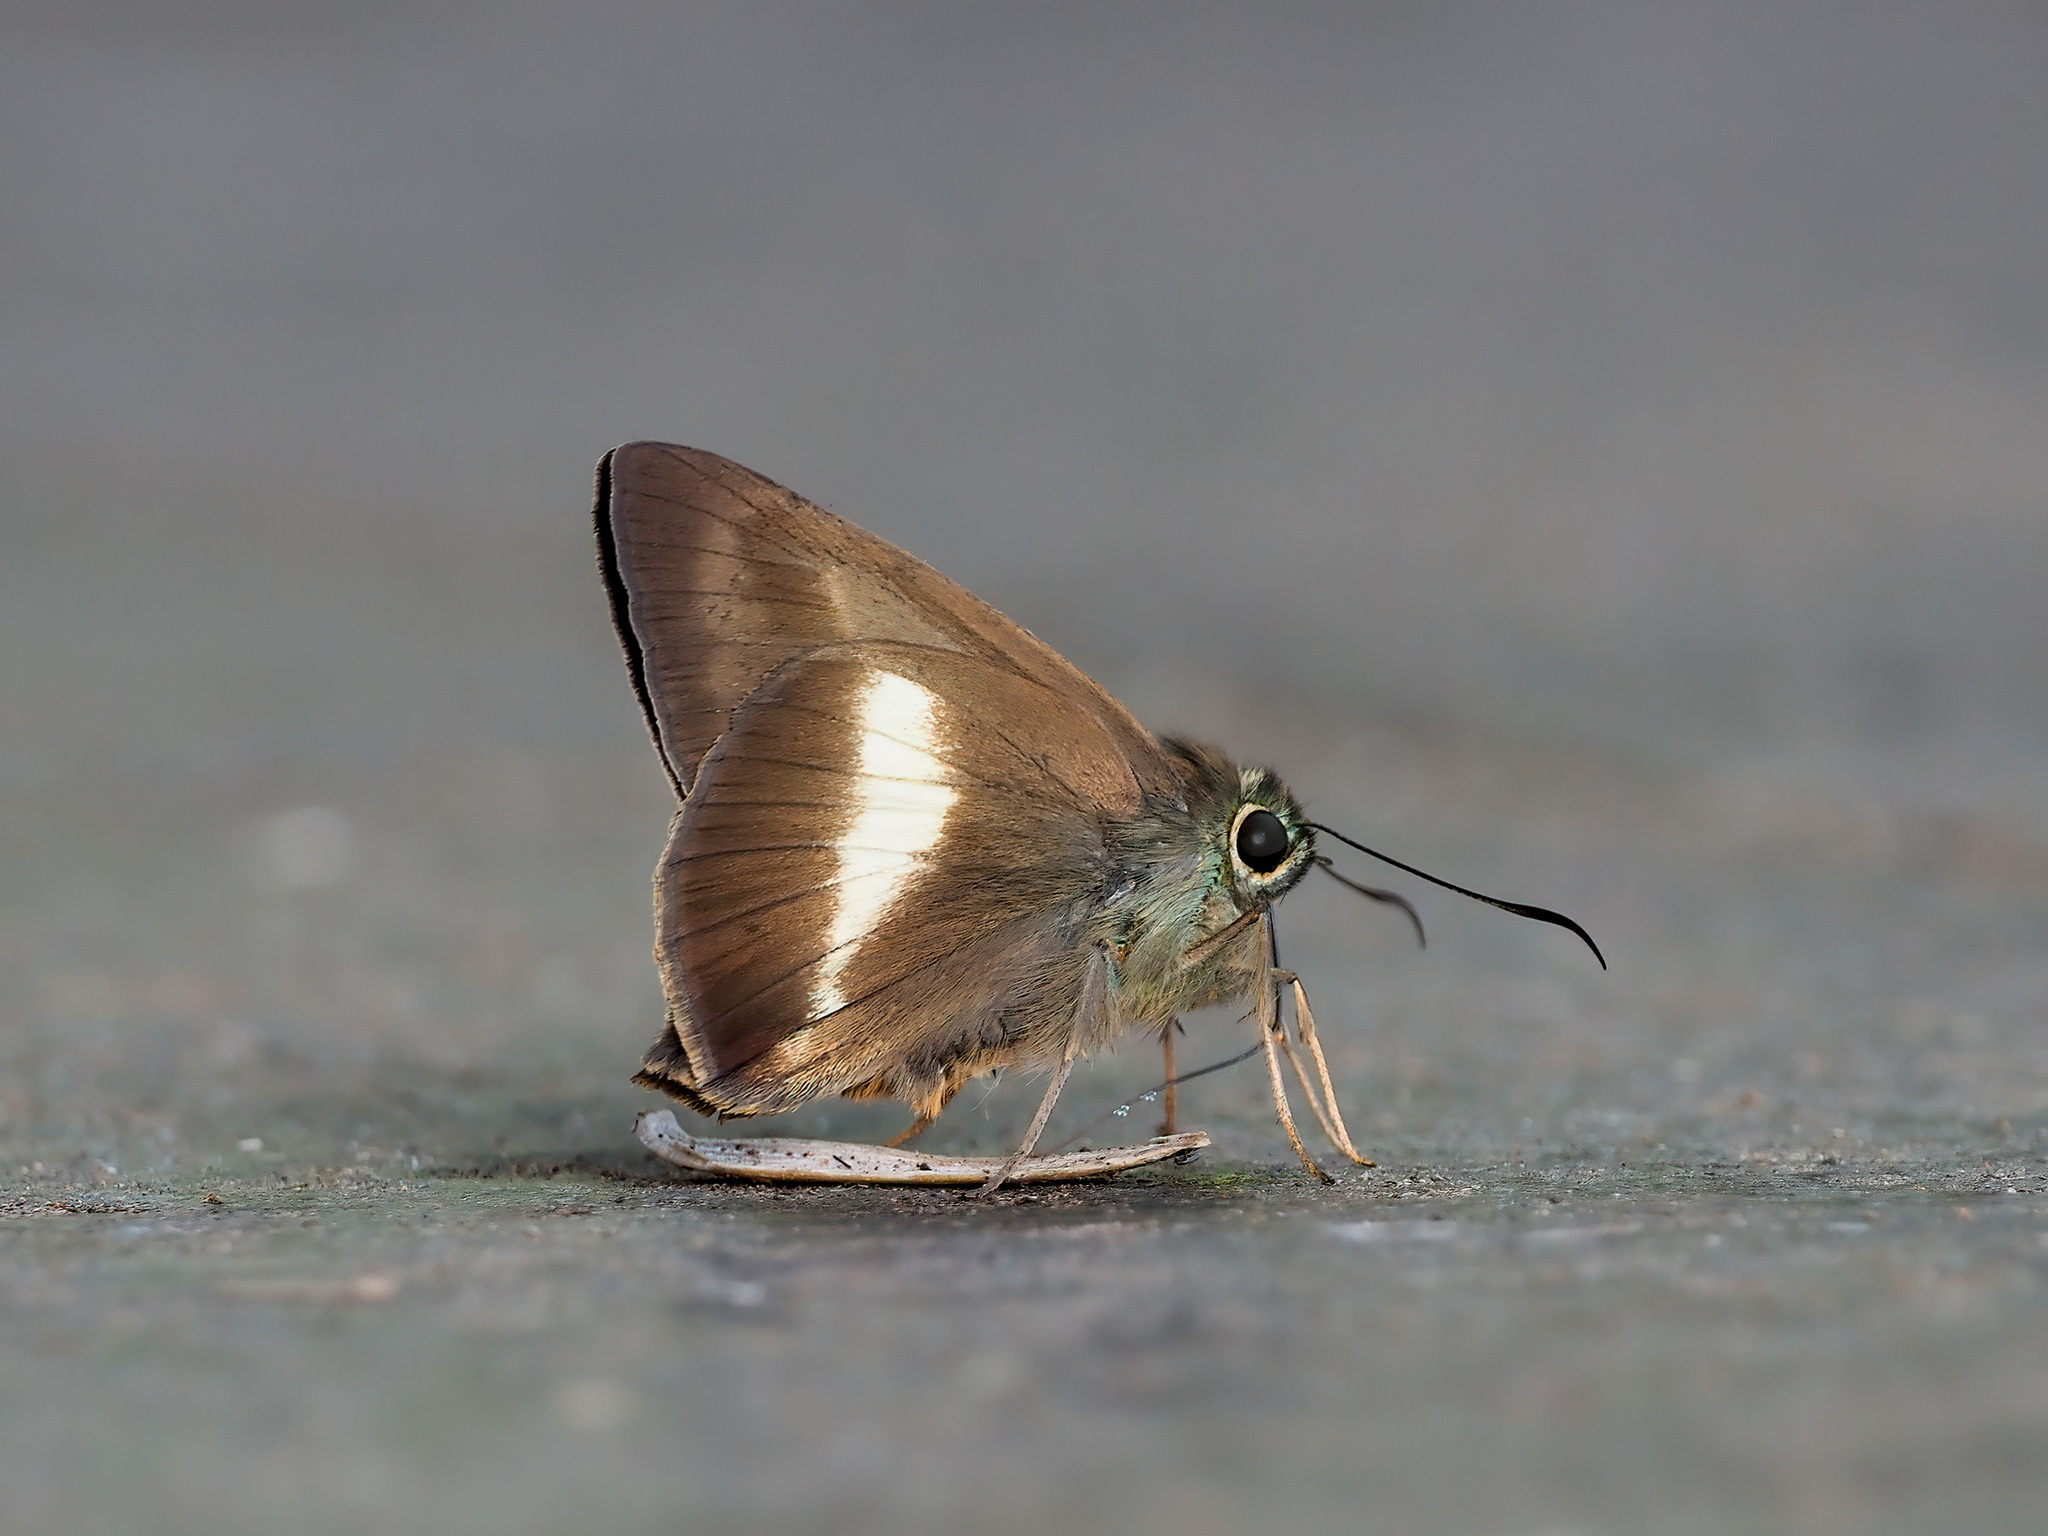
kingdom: Animalia
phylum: Arthropoda
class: Insecta
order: Lepidoptera
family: Hesperiidae
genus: Hasora
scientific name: Hasora borneensis
